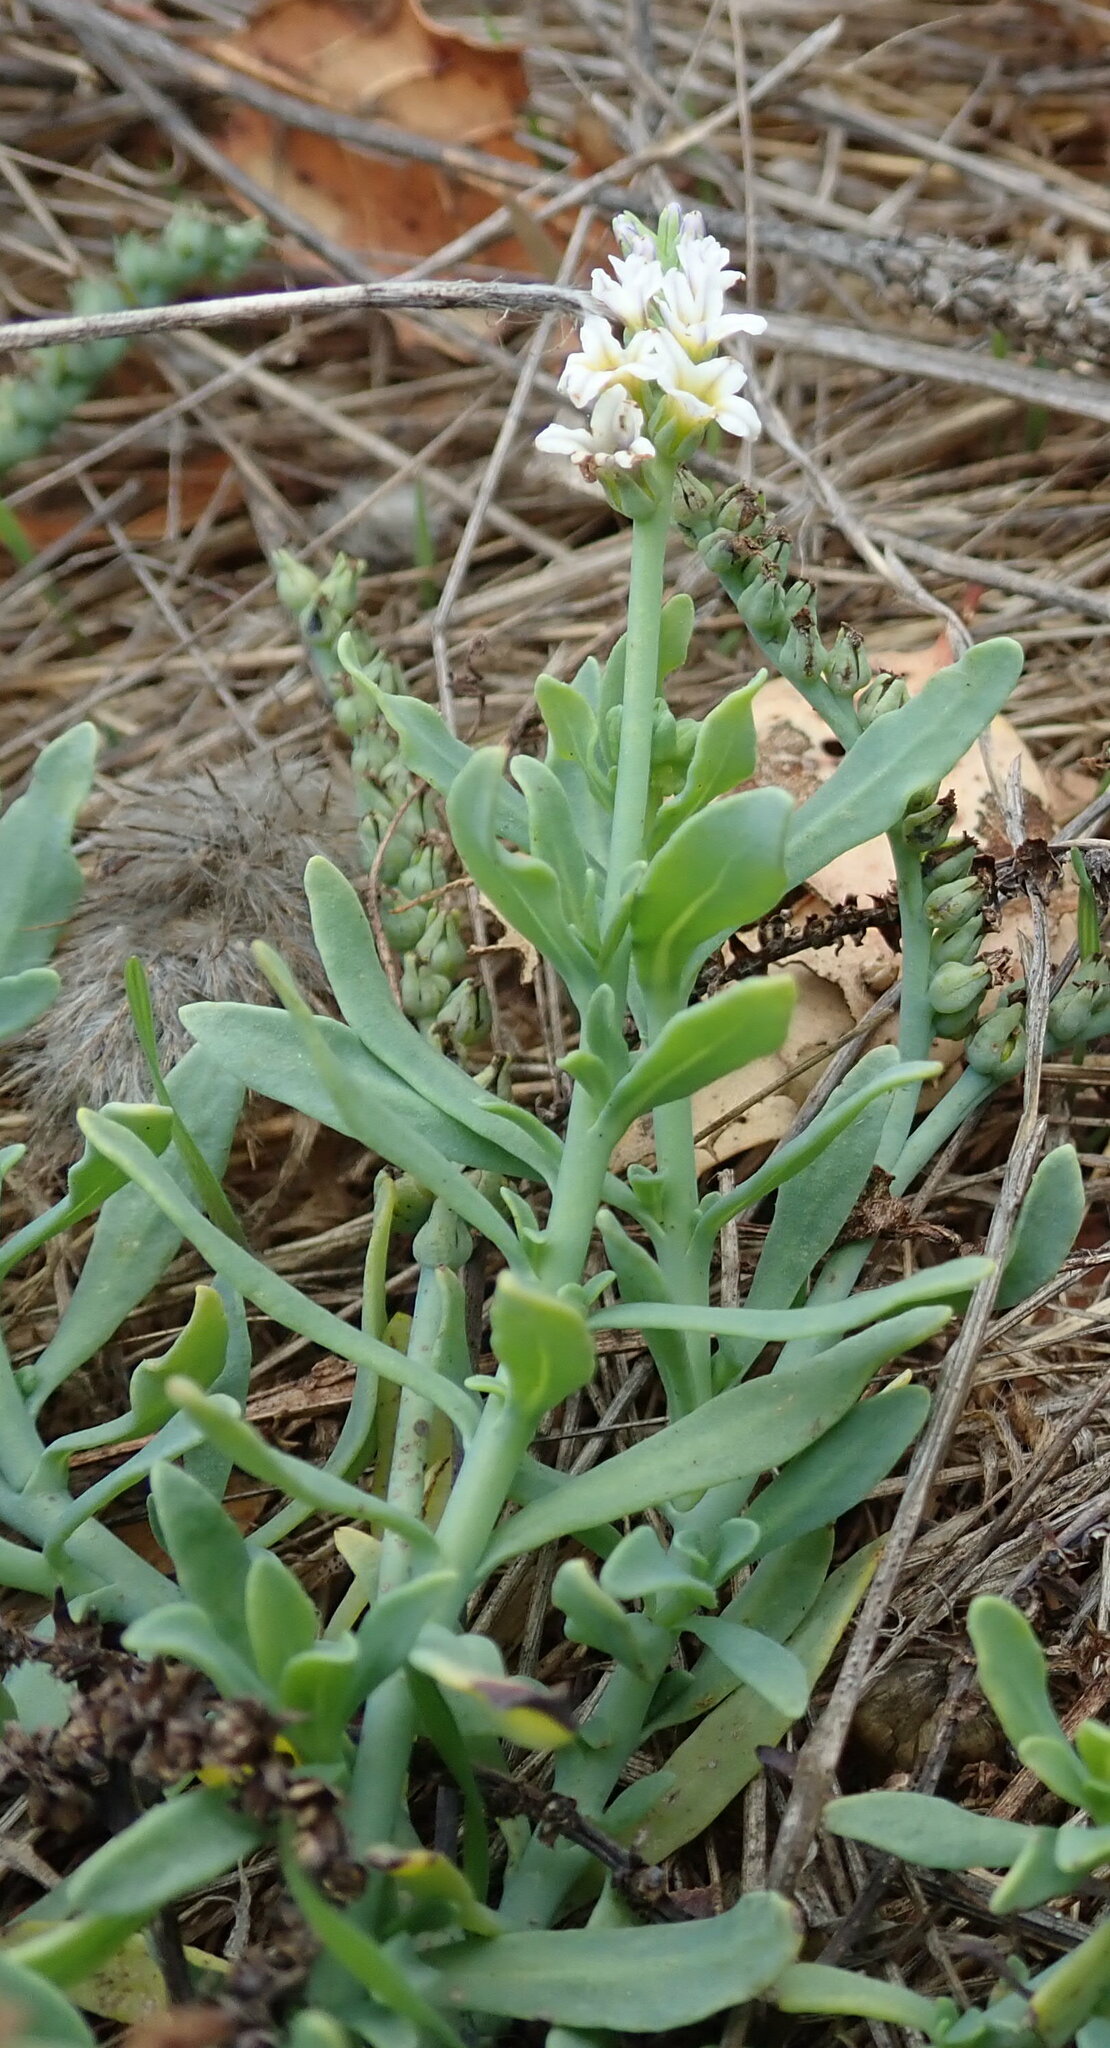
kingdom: Plantae
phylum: Tracheophyta
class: Magnoliopsida
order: Boraginales
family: Heliotropiaceae
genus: Heliotropium
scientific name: Heliotropium curassavicum
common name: Seaside heliotrope
